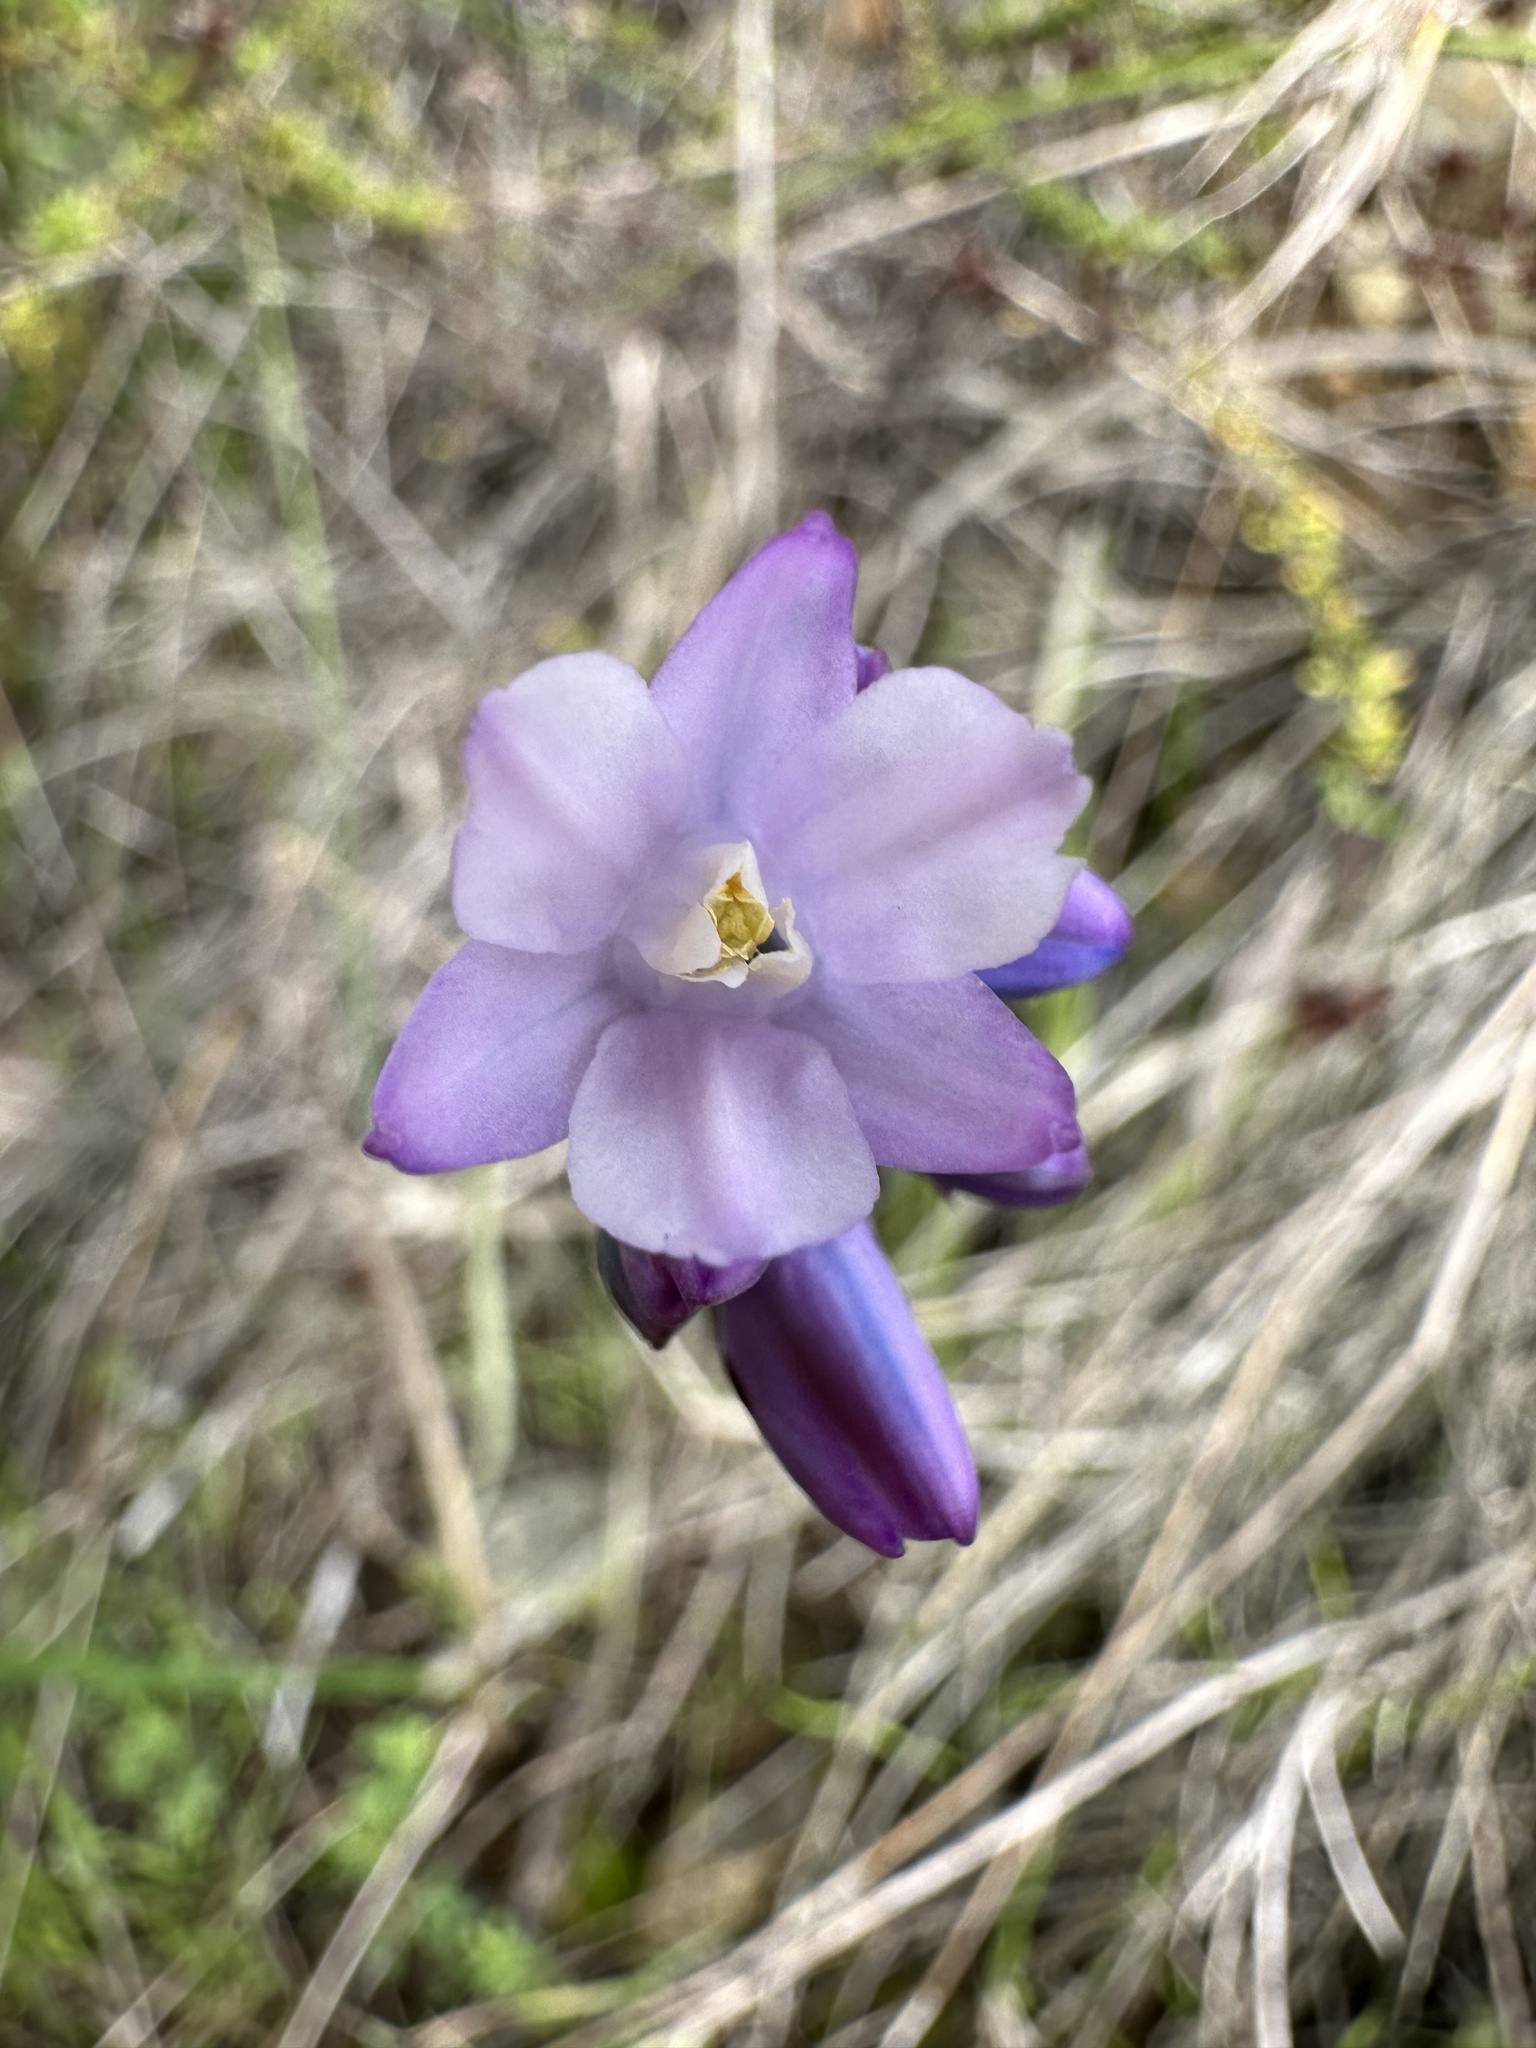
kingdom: Plantae
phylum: Tracheophyta
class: Liliopsida
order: Asparagales
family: Asparagaceae
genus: Dipterostemon
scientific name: Dipterostemon capitatus
